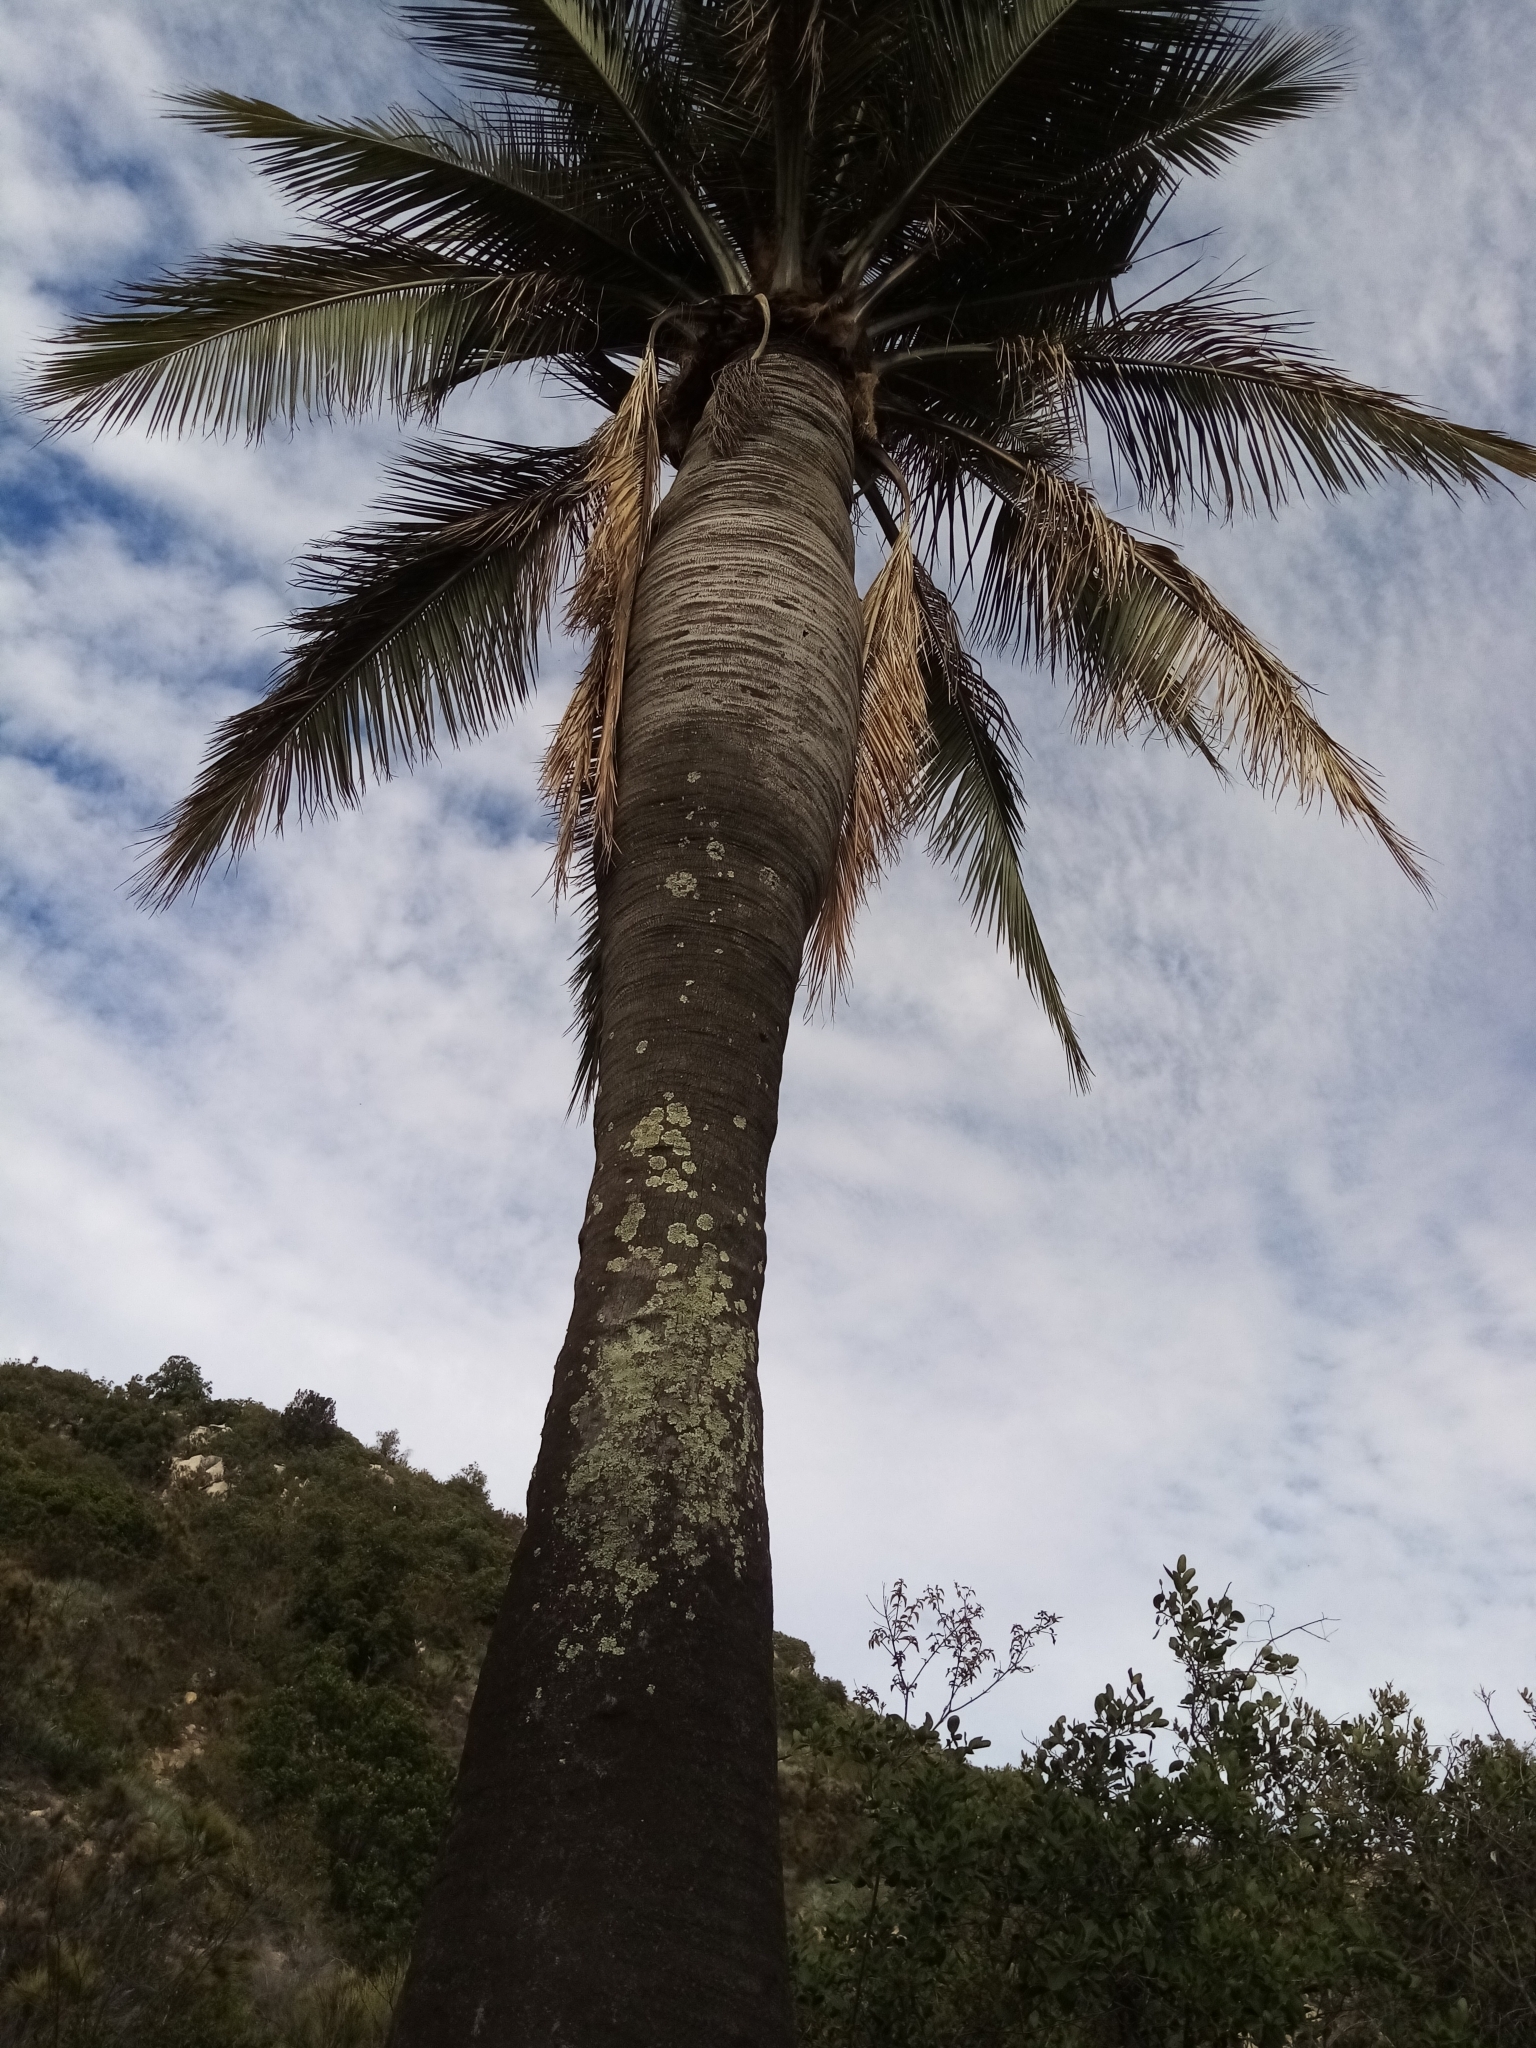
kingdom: Plantae
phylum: Tracheophyta
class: Liliopsida
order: Arecales
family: Arecaceae
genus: Jubaea
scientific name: Jubaea chilensis
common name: Coquito palm
